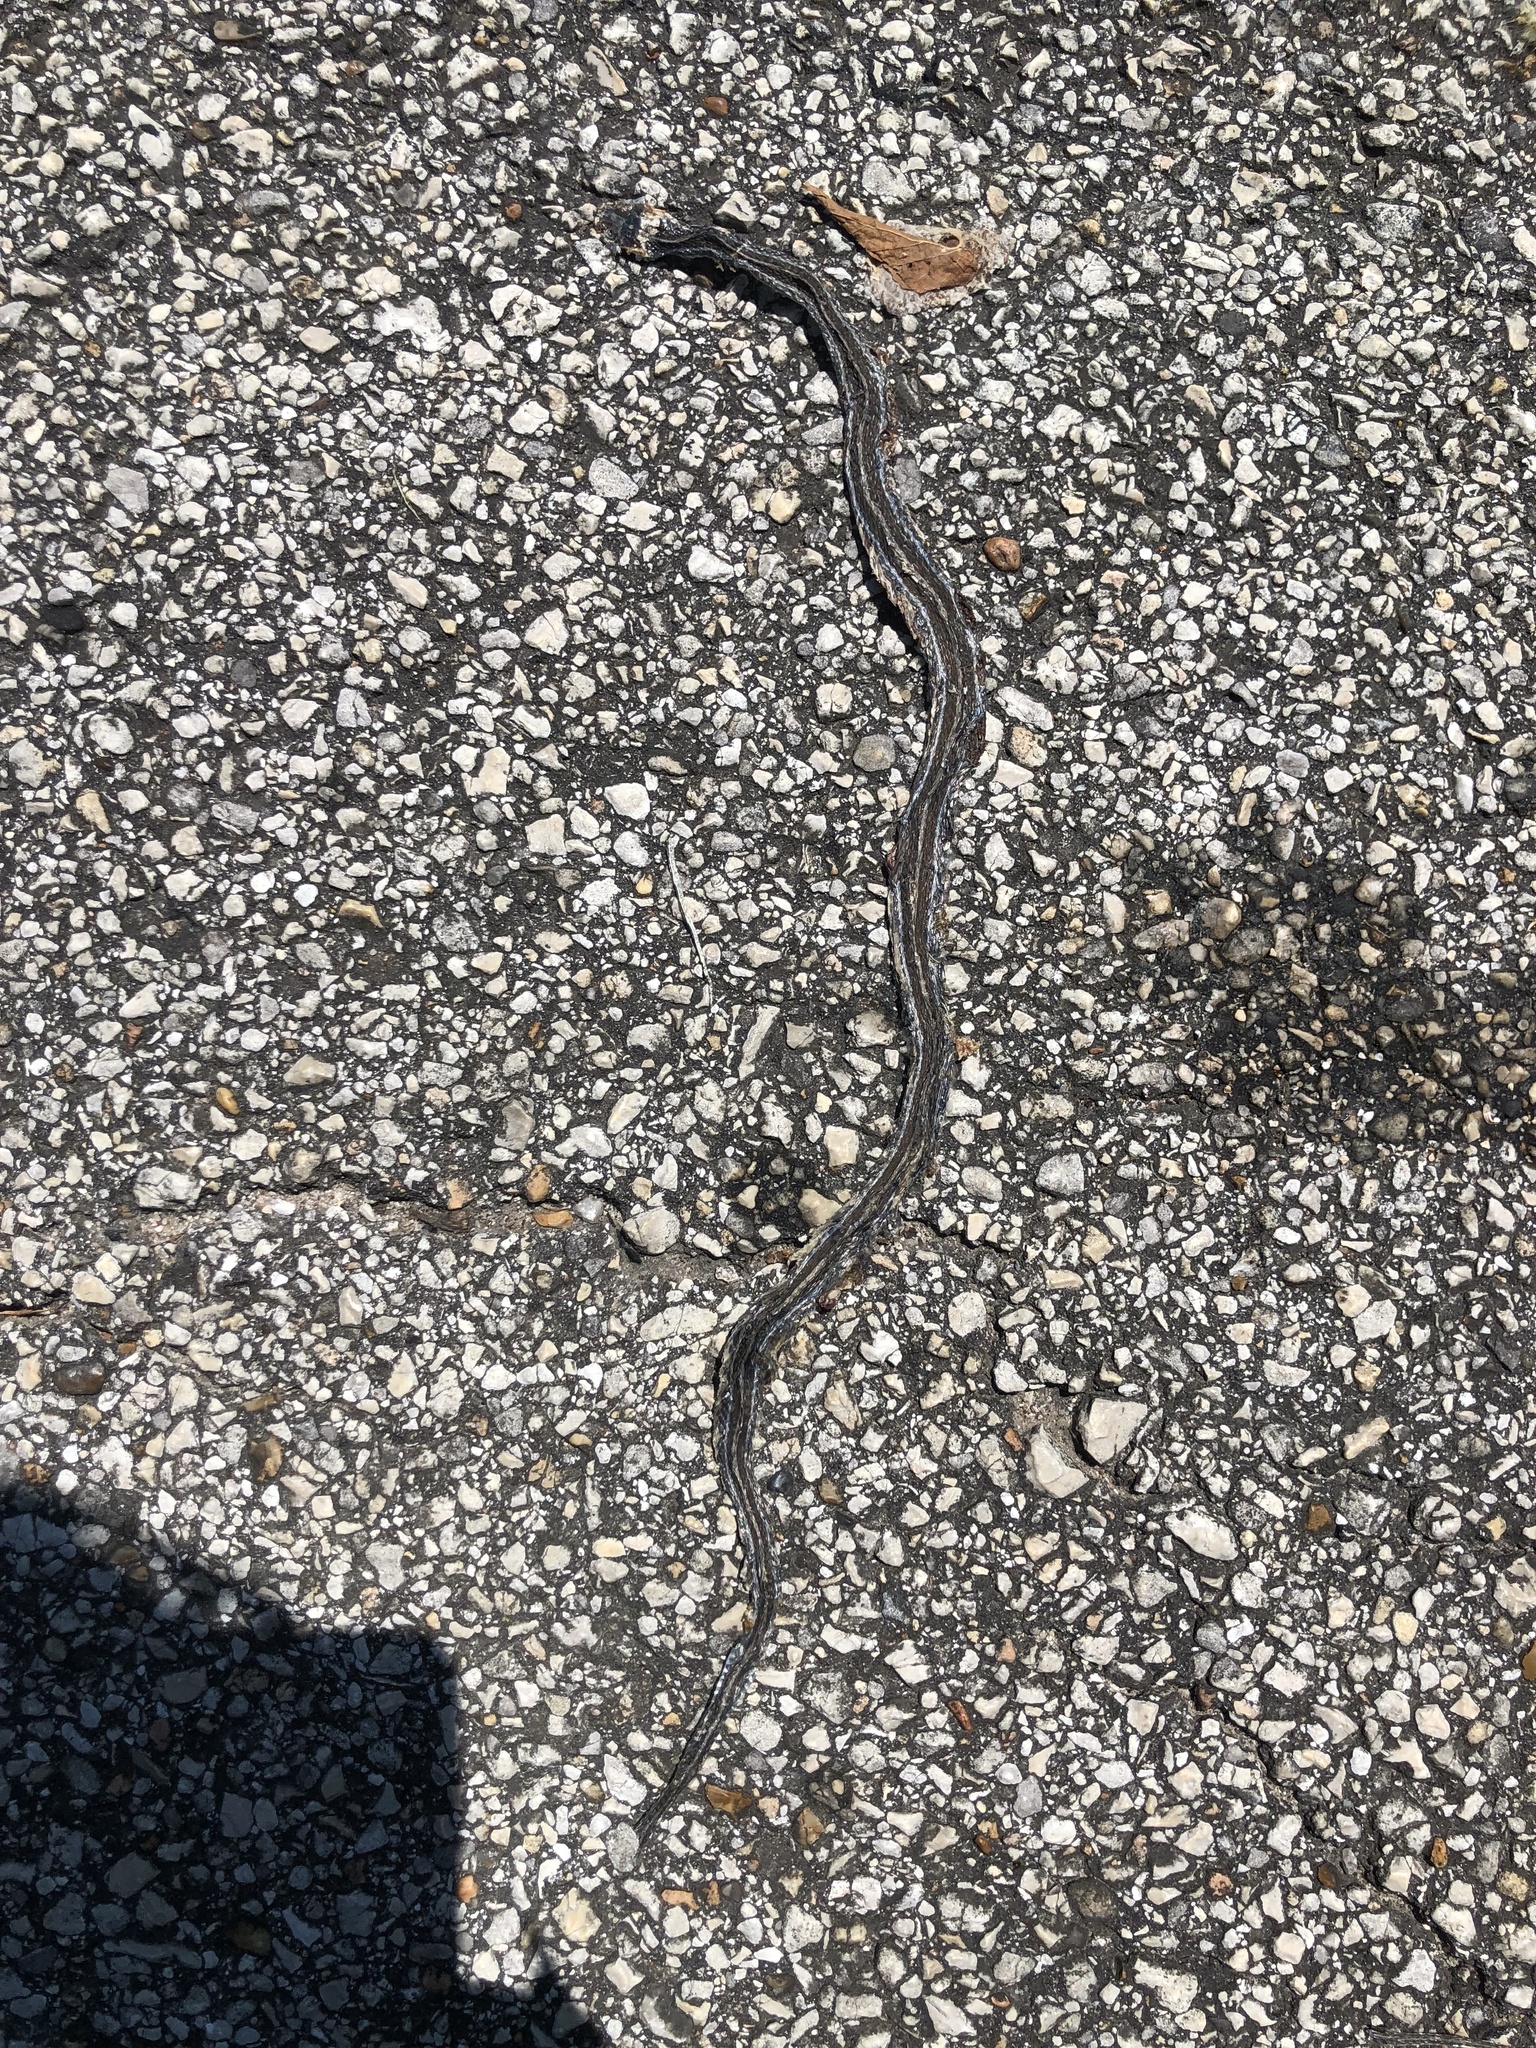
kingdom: Animalia
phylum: Chordata
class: Squamata
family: Colubridae
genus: Thamnophis
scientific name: Thamnophis proximus
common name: Western ribbon snake
